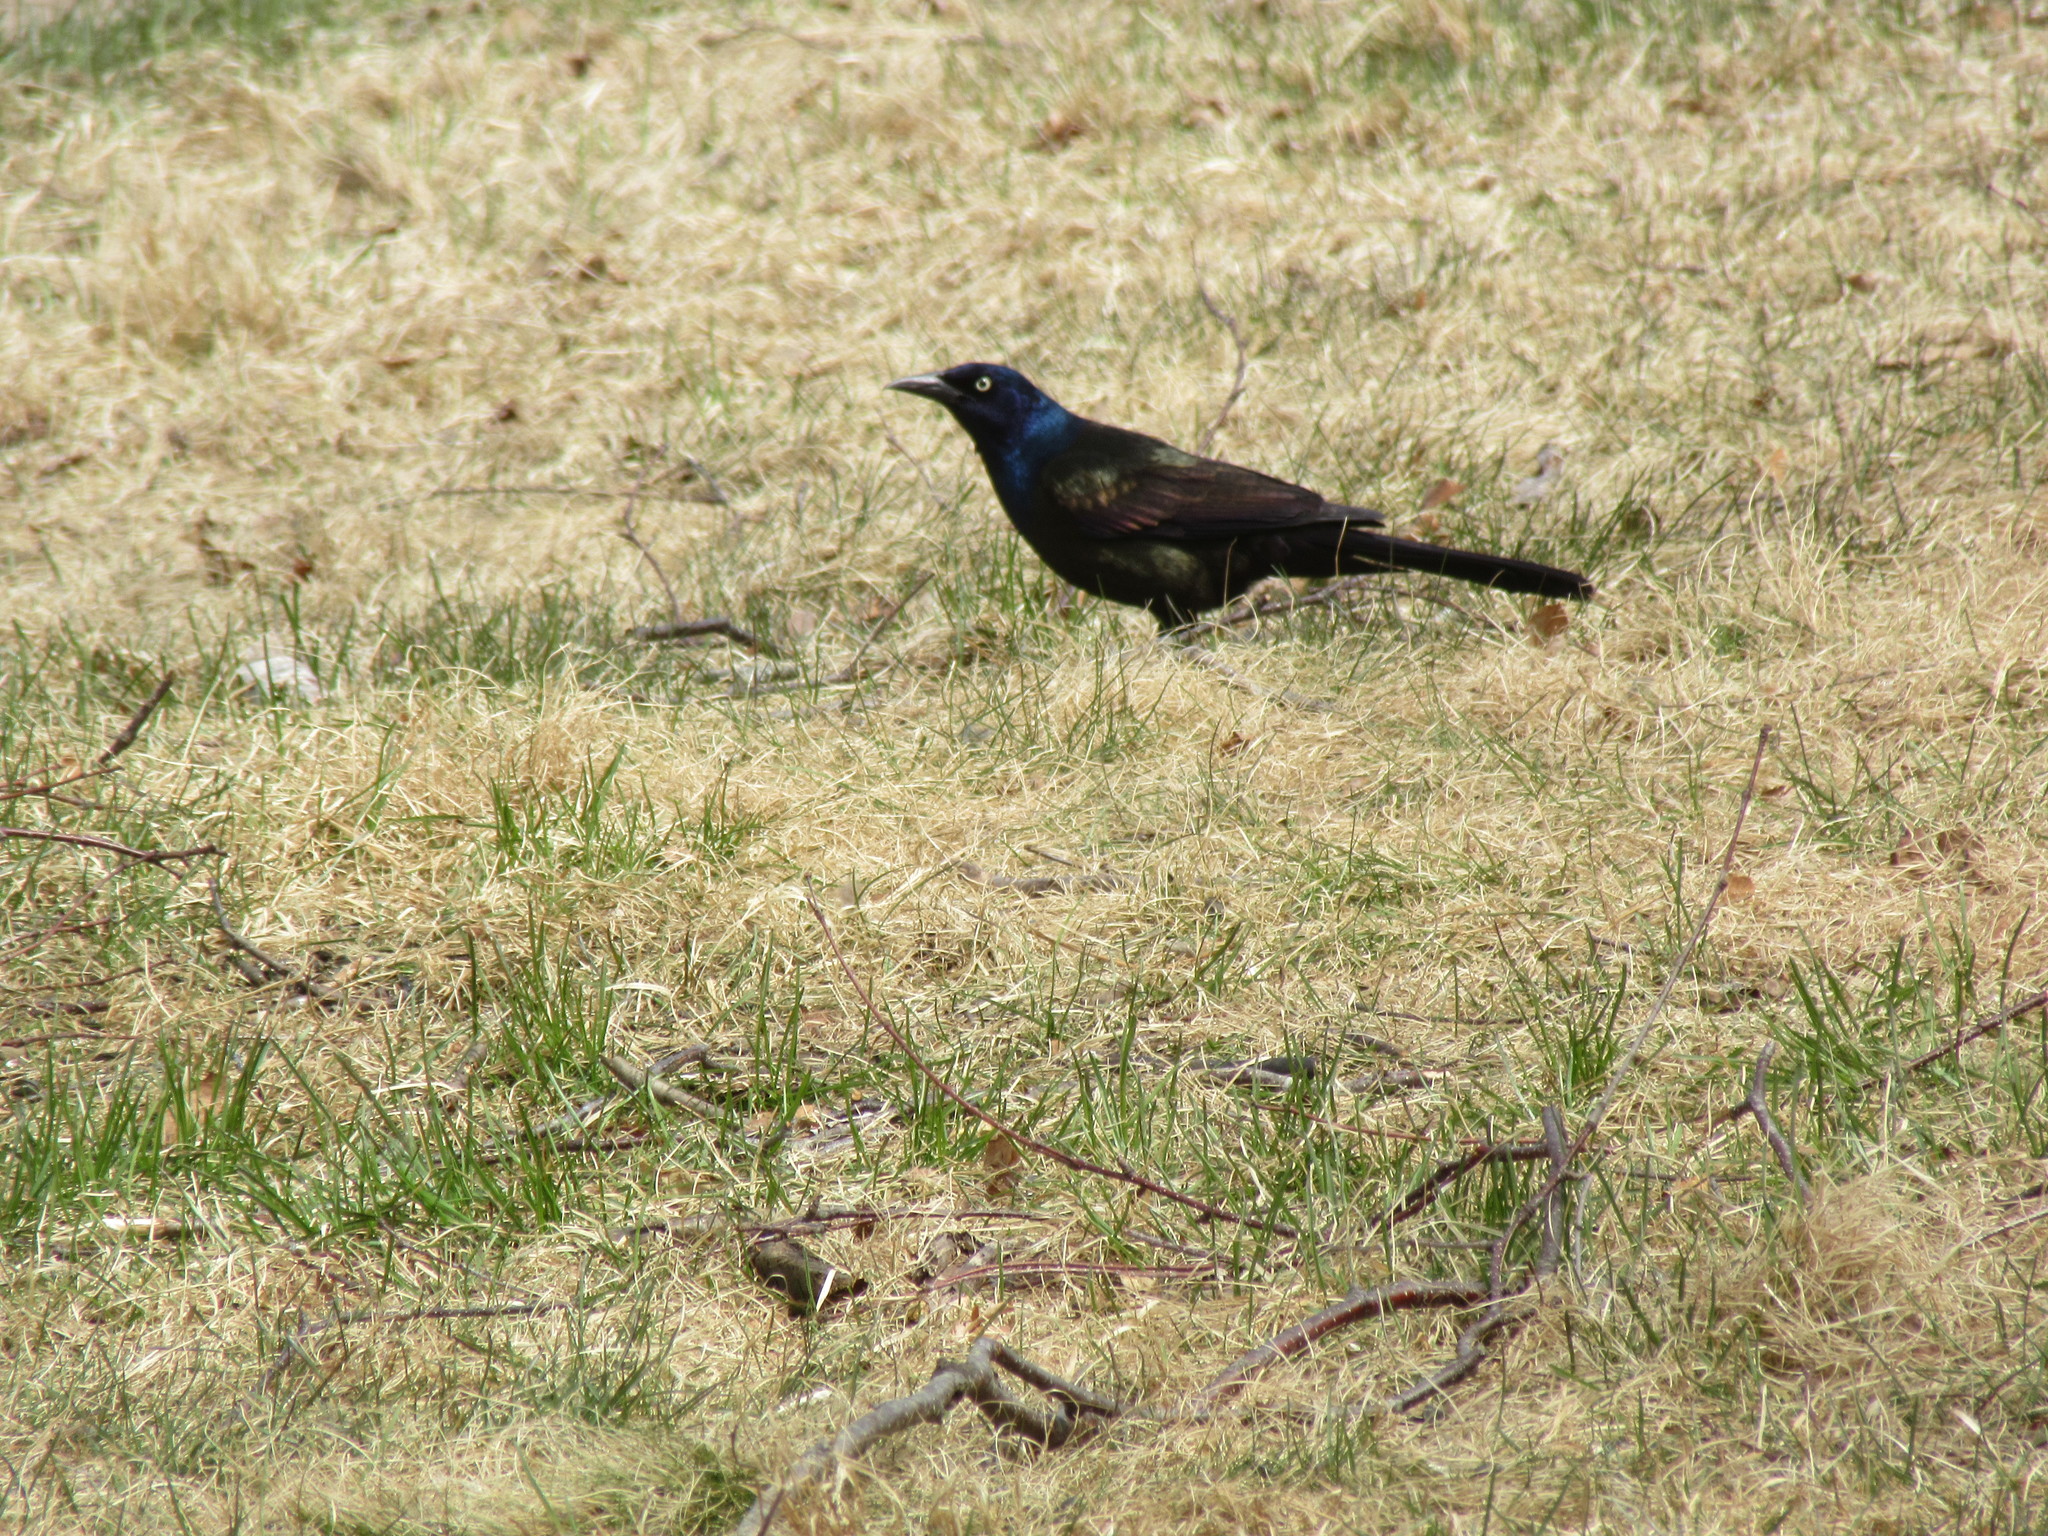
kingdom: Animalia
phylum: Chordata
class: Aves
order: Passeriformes
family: Icteridae
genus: Quiscalus
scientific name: Quiscalus quiscula
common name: Common grackle
